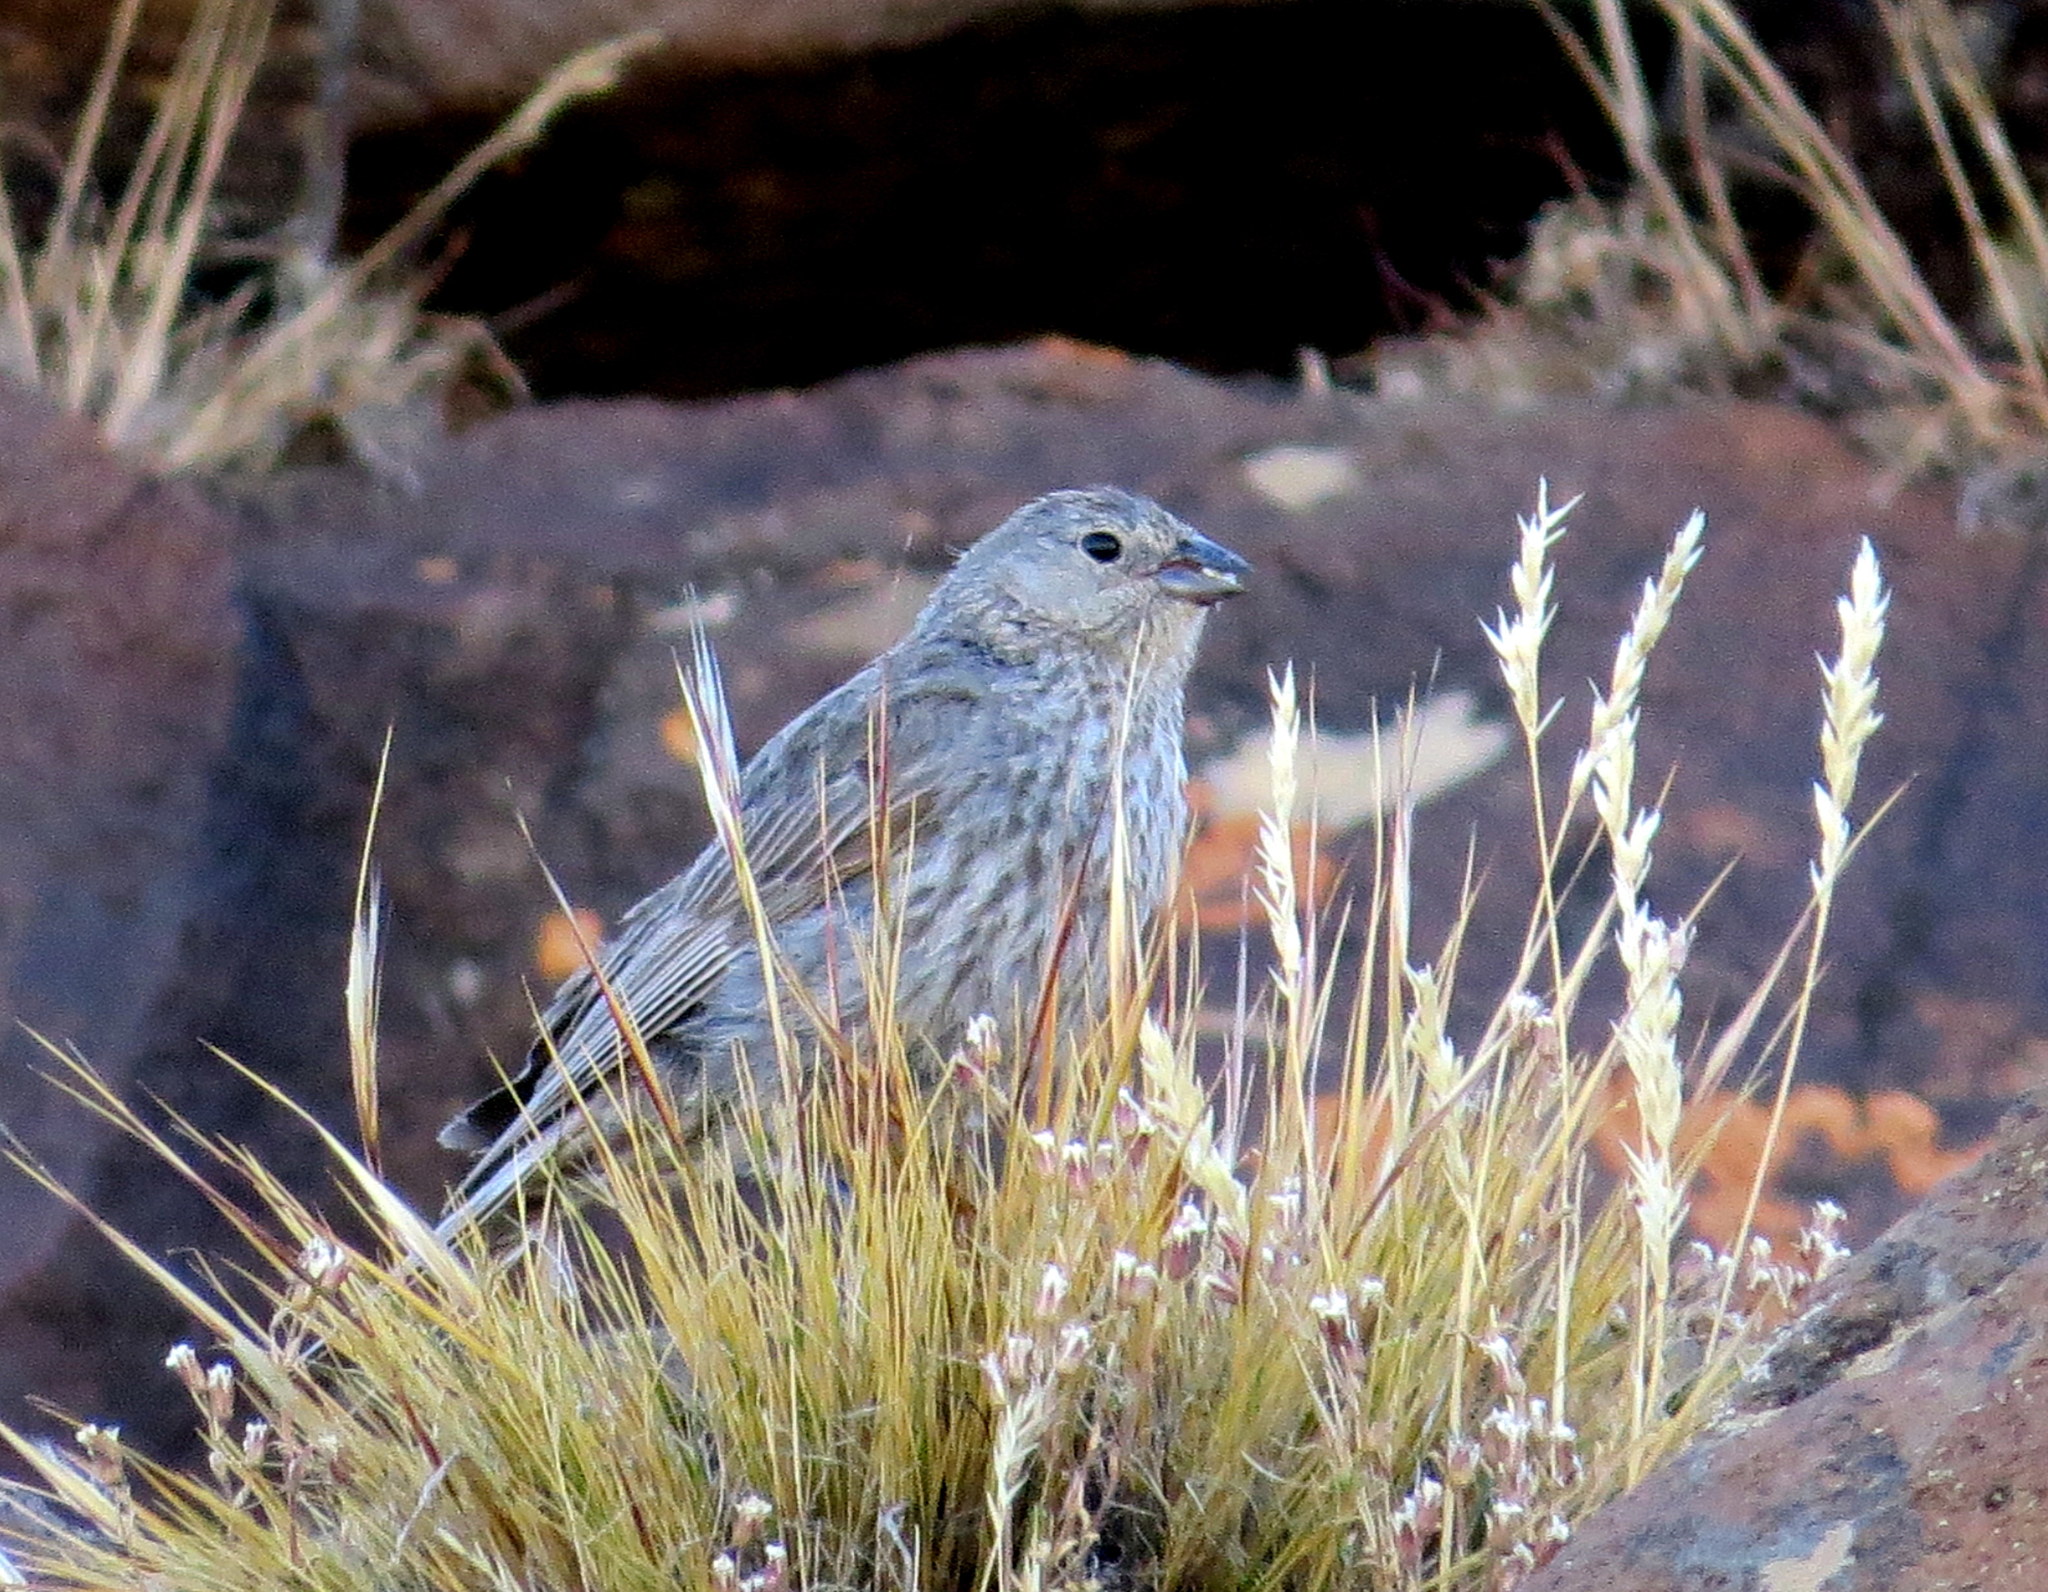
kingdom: Animalia
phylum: Chordata
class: Aves
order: Passeriformes
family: Thraupidae
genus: Geospizopsis
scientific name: Geospizopsis unicolor
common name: Plumbeous sierra-finch
